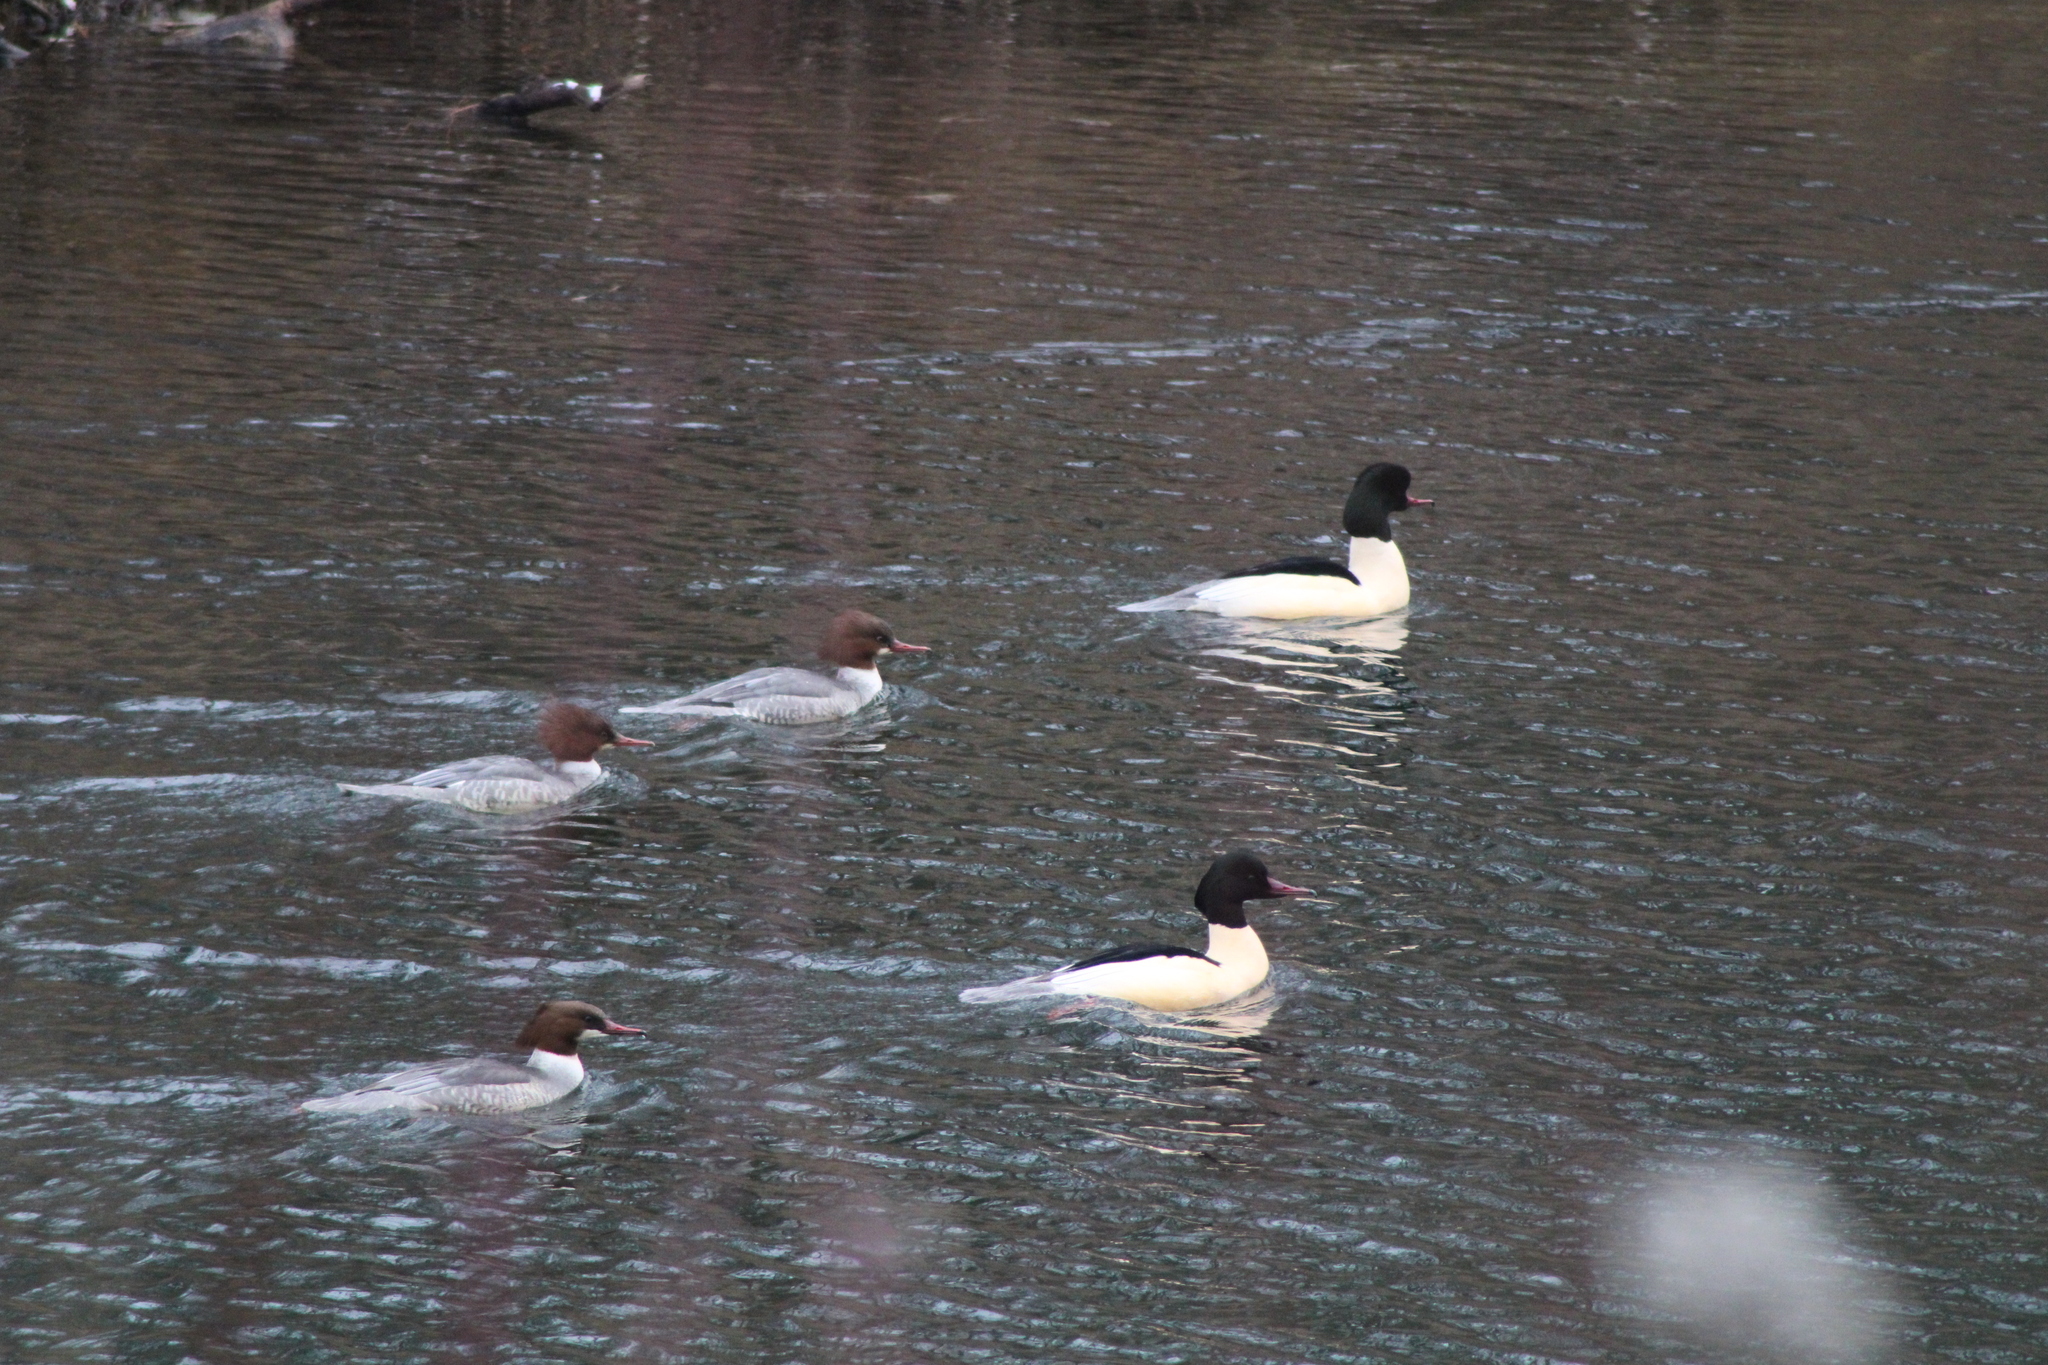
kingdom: Animalia
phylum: Chordata
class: Aves
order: Anseriformes
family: Anatidae
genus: Mergus
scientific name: Mergus merganser
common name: Common merganser
